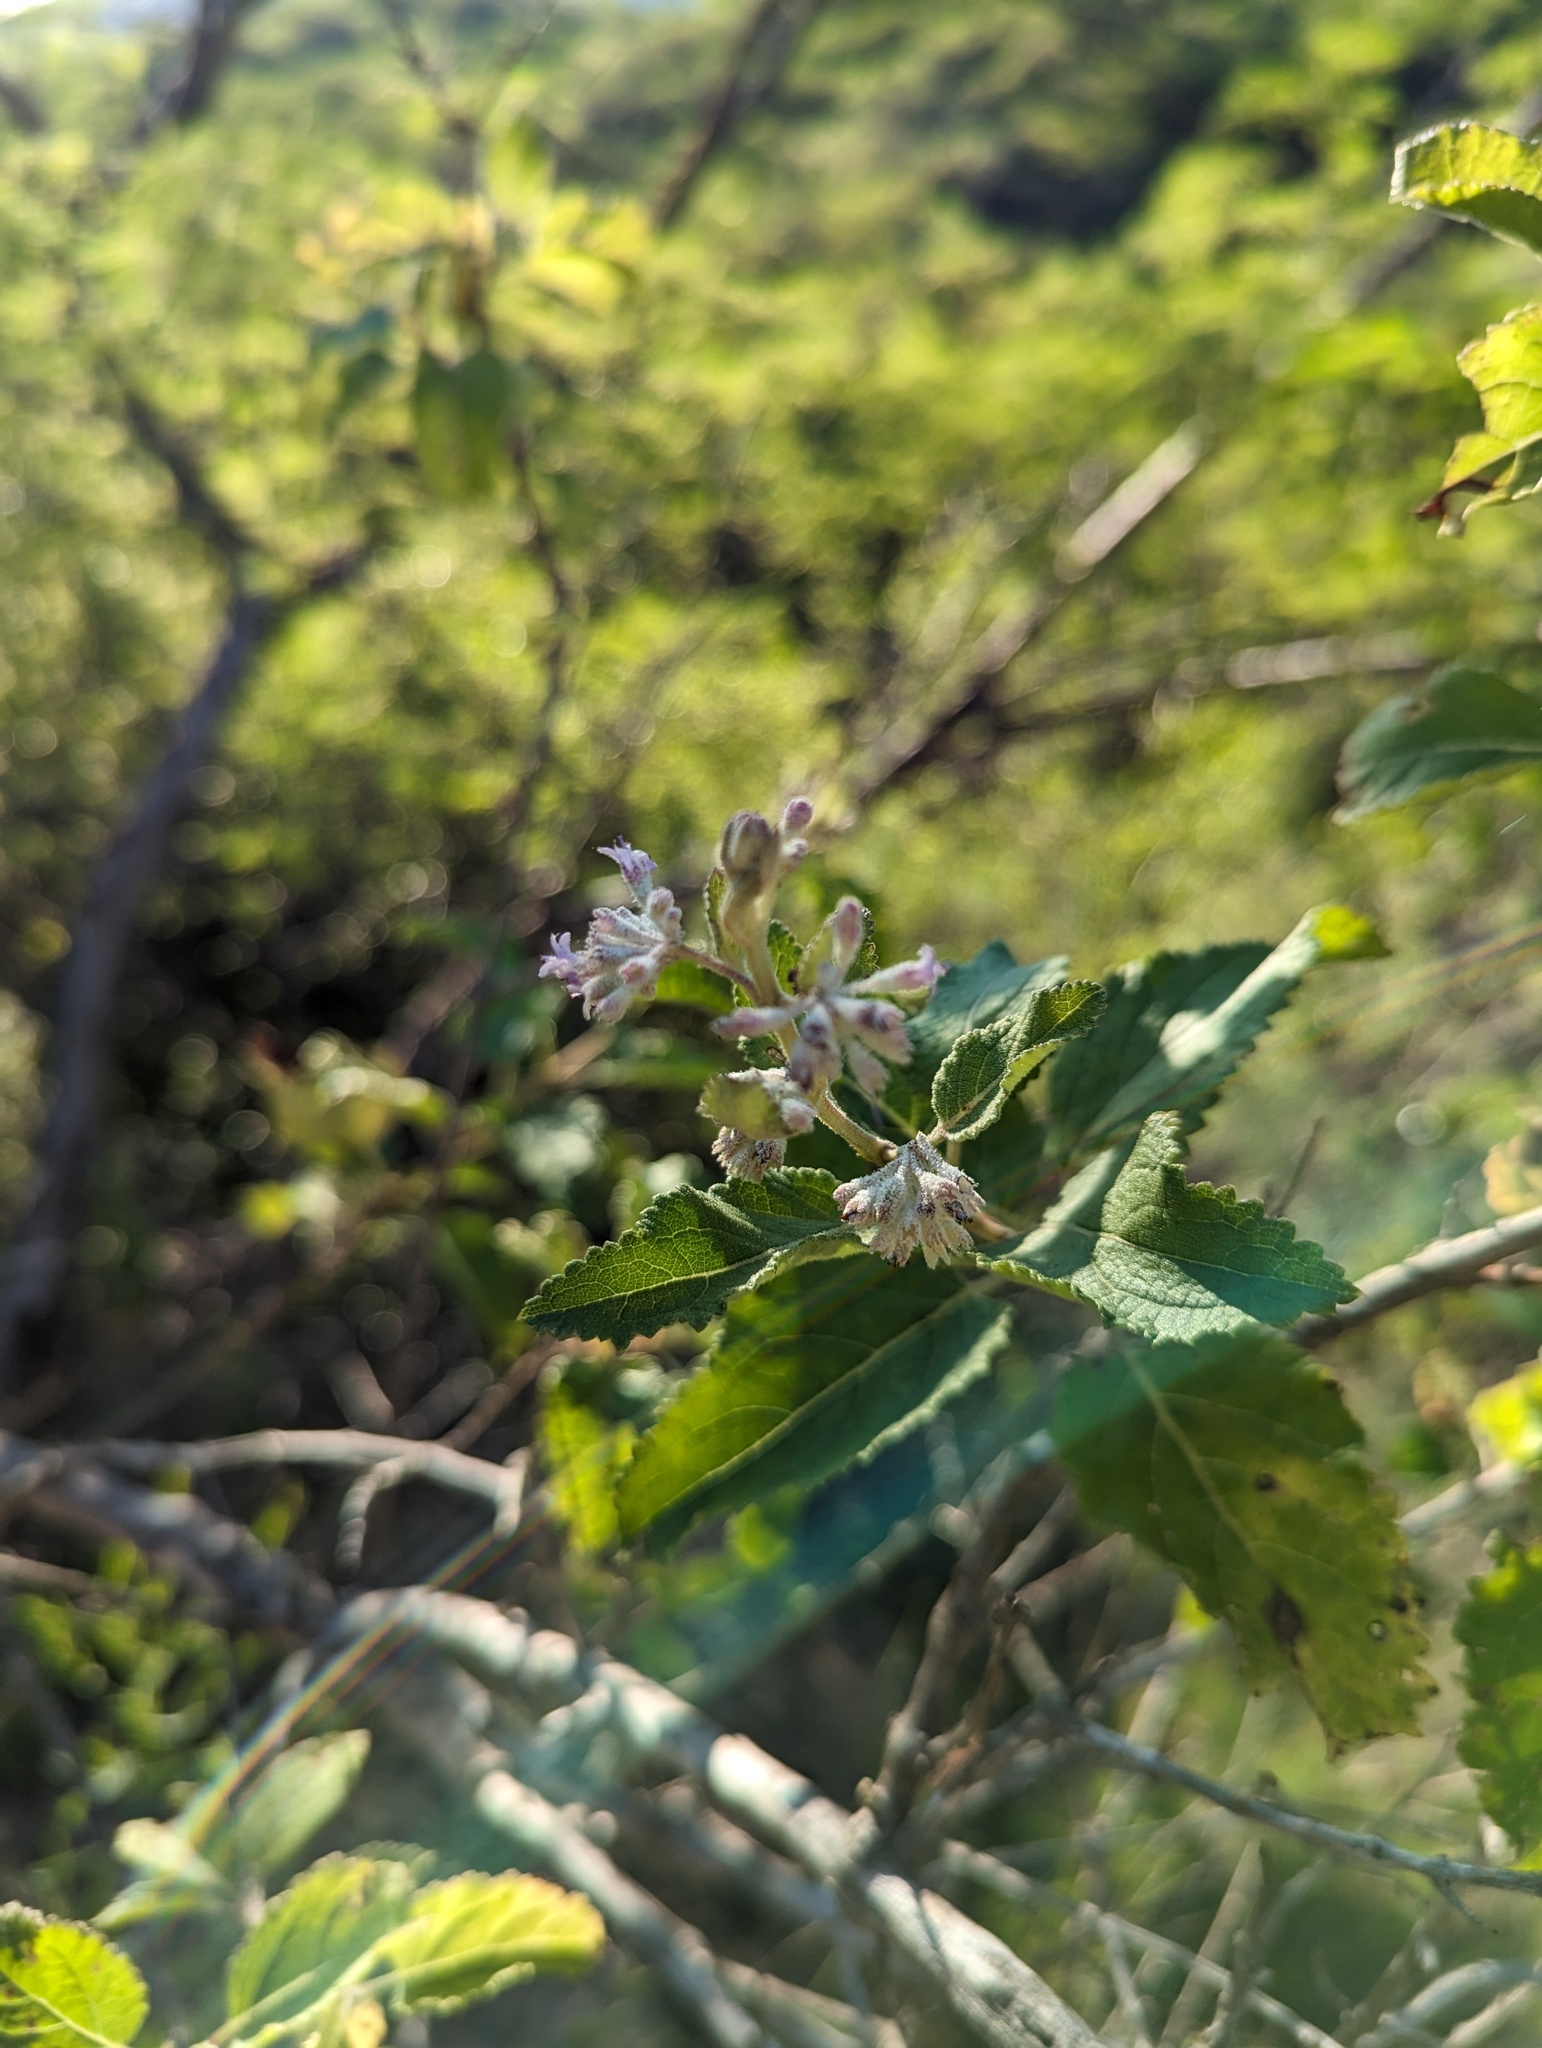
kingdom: Plantae
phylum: Tracheophyta
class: Magnoliopsida
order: Lamiales
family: Lamiaceae
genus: Condea
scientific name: Condea decipiens
